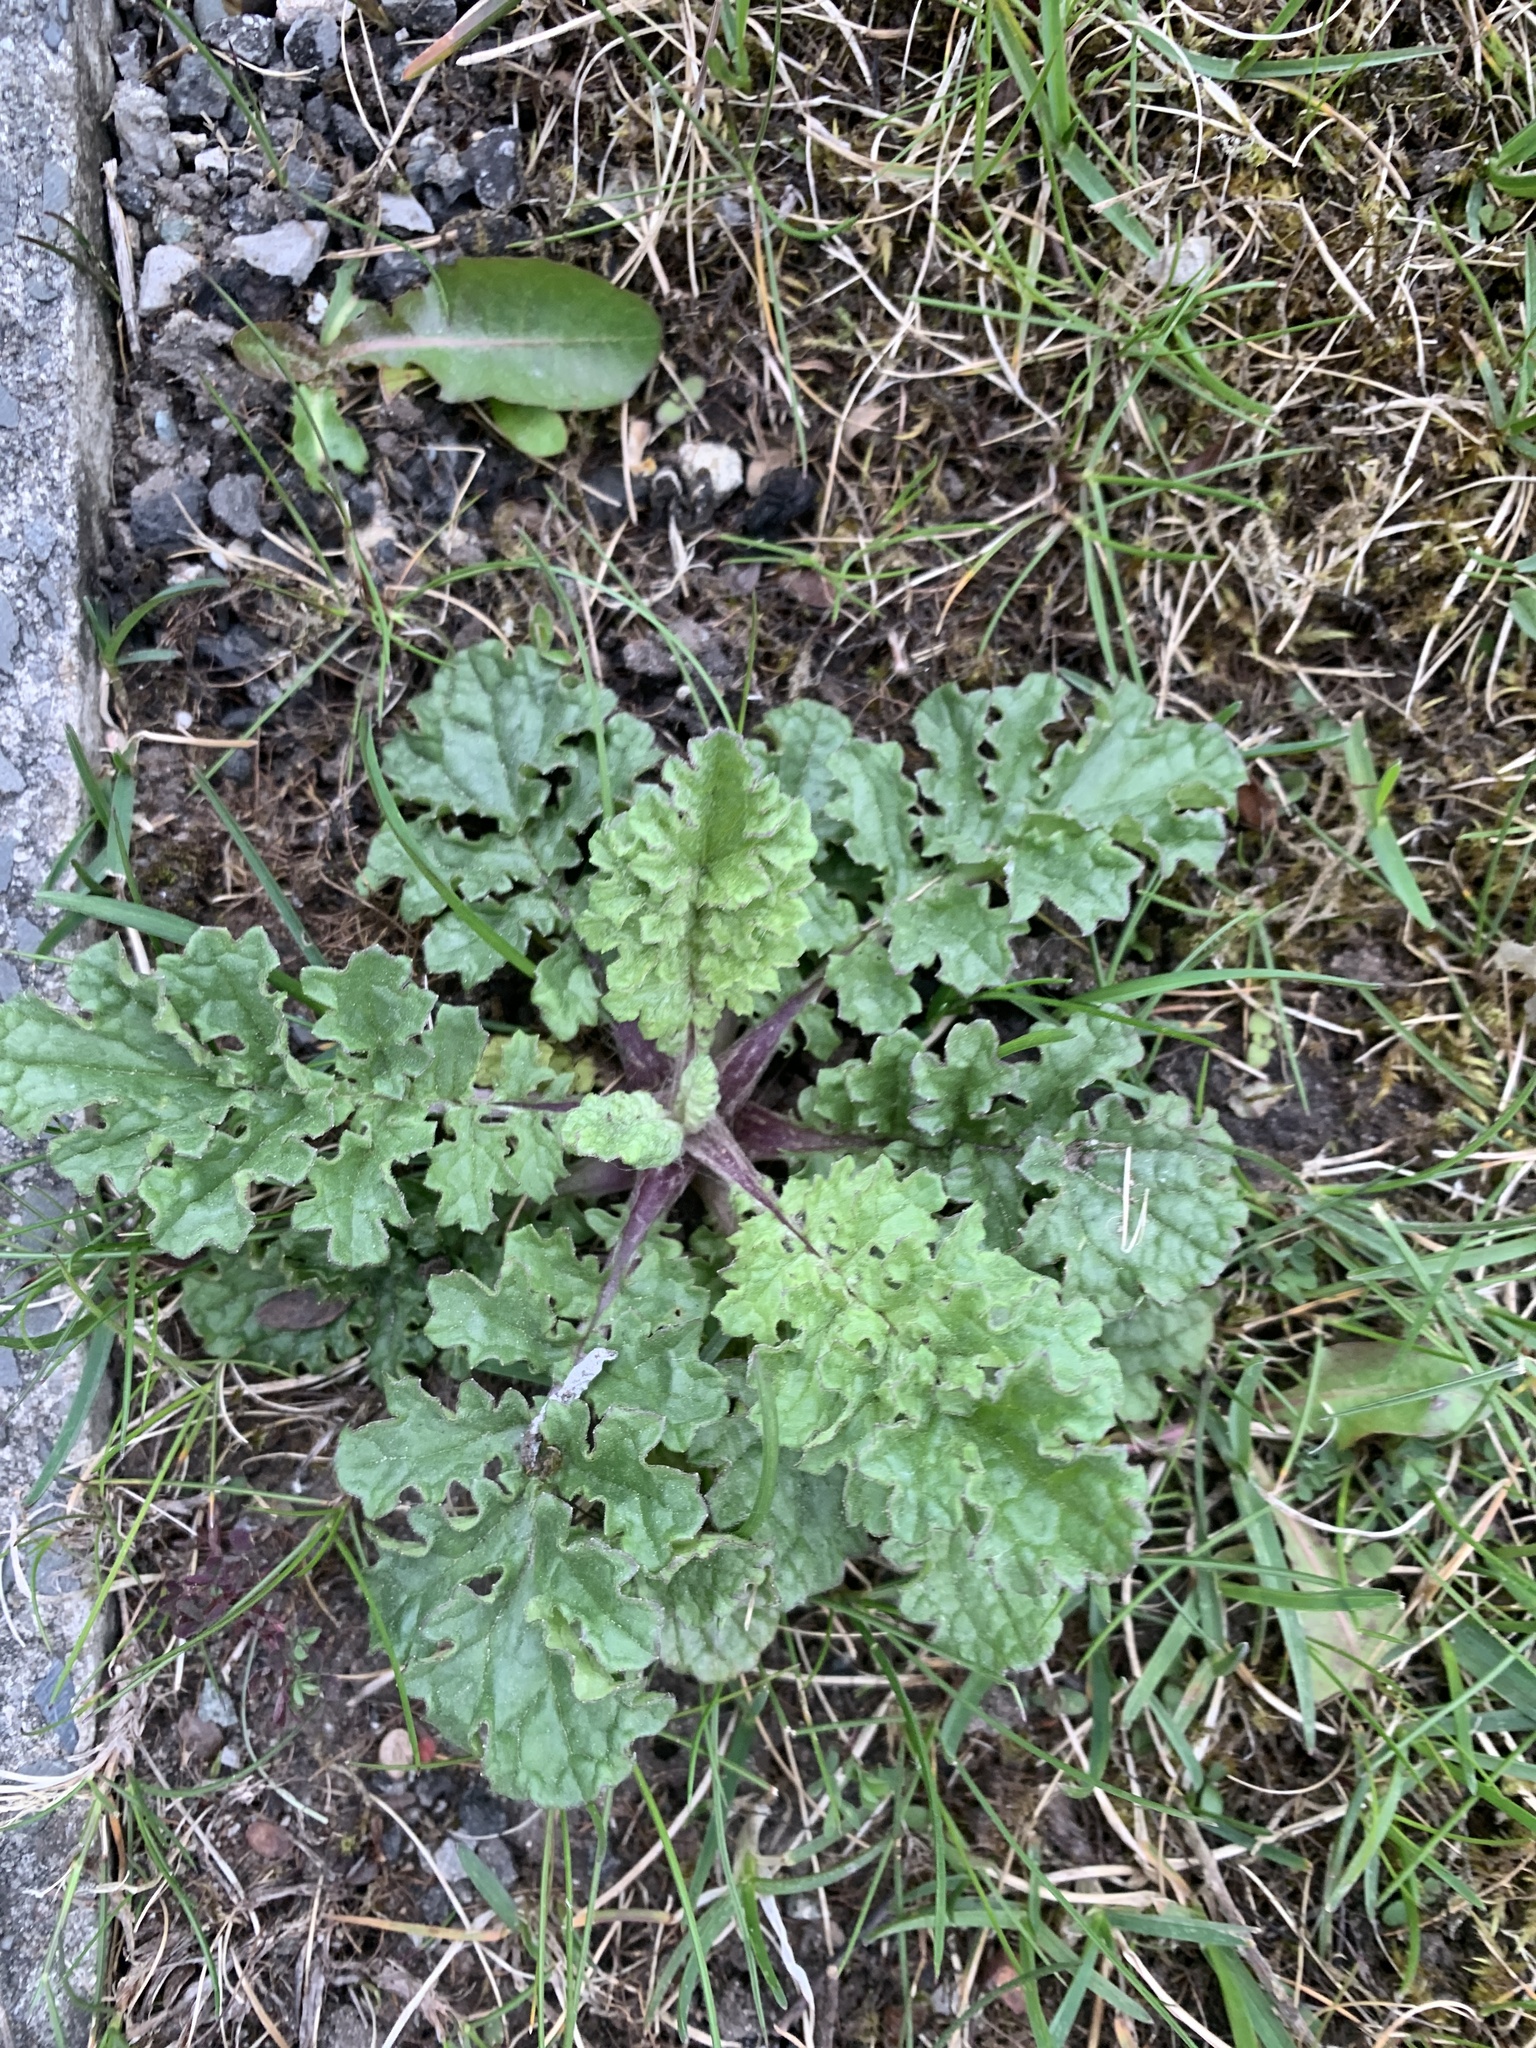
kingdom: Plantae
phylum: Tracheophyta
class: Magnoliopsida
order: Asterales
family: Asteraceae
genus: Jacobaea
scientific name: Jacobaea vulgaris
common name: Stinking willie
